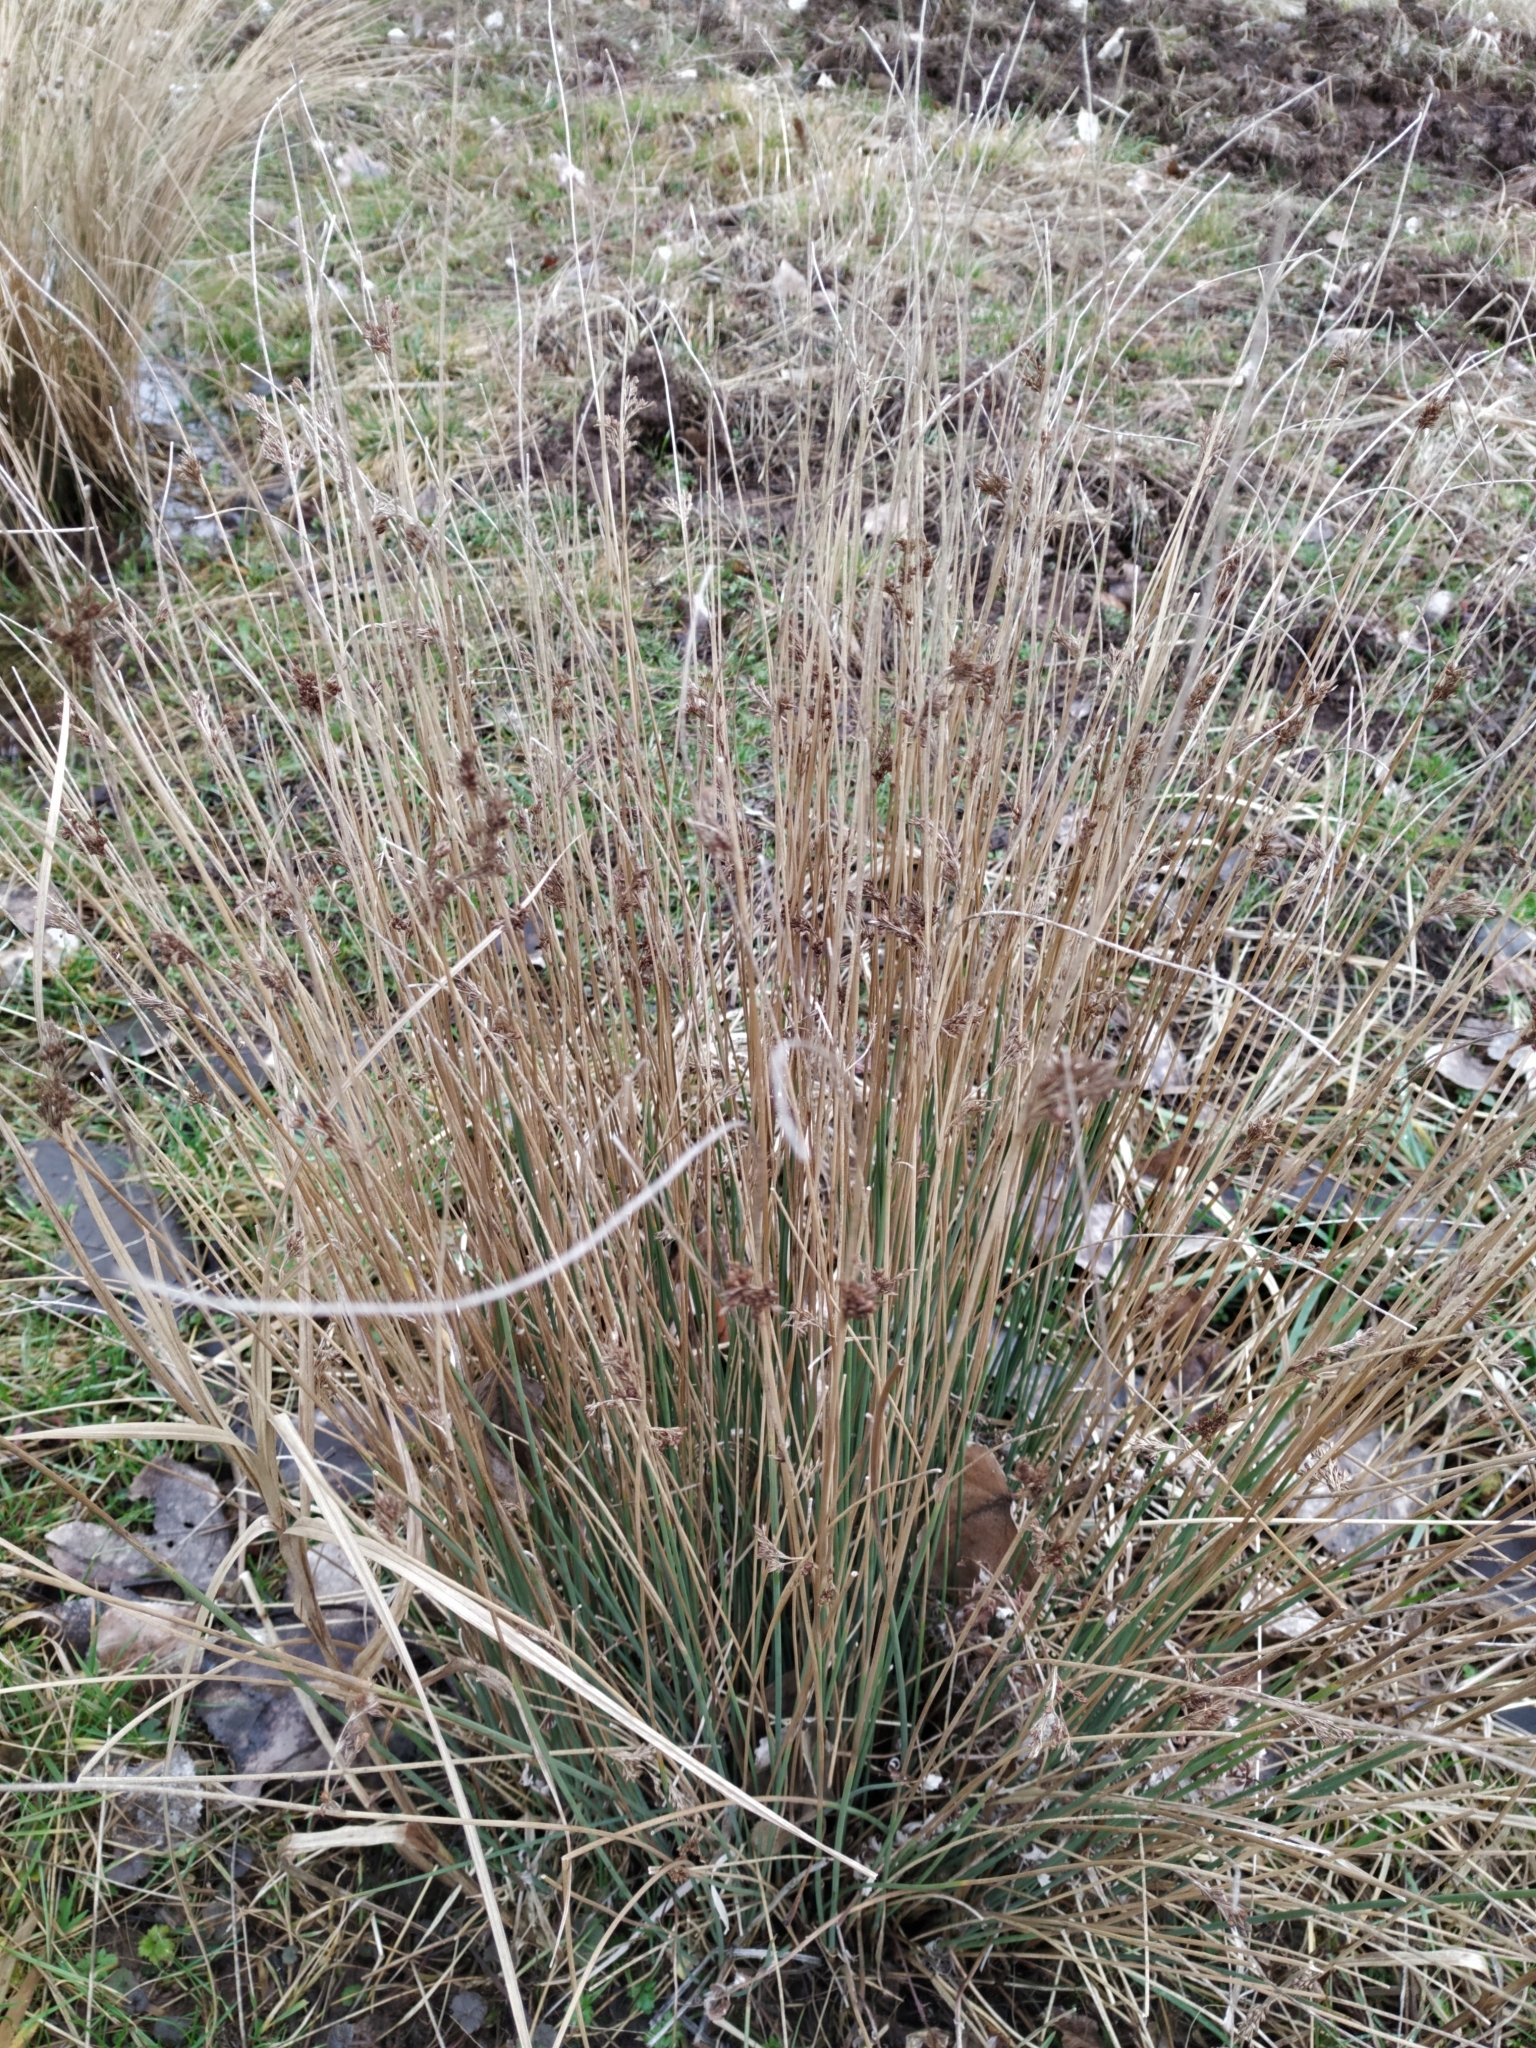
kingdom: Plantae
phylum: Tracheophyta
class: Liliopsida
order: Poales
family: Juncaceae
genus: Juncus
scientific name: Juncus inflexus
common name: Hard rush
